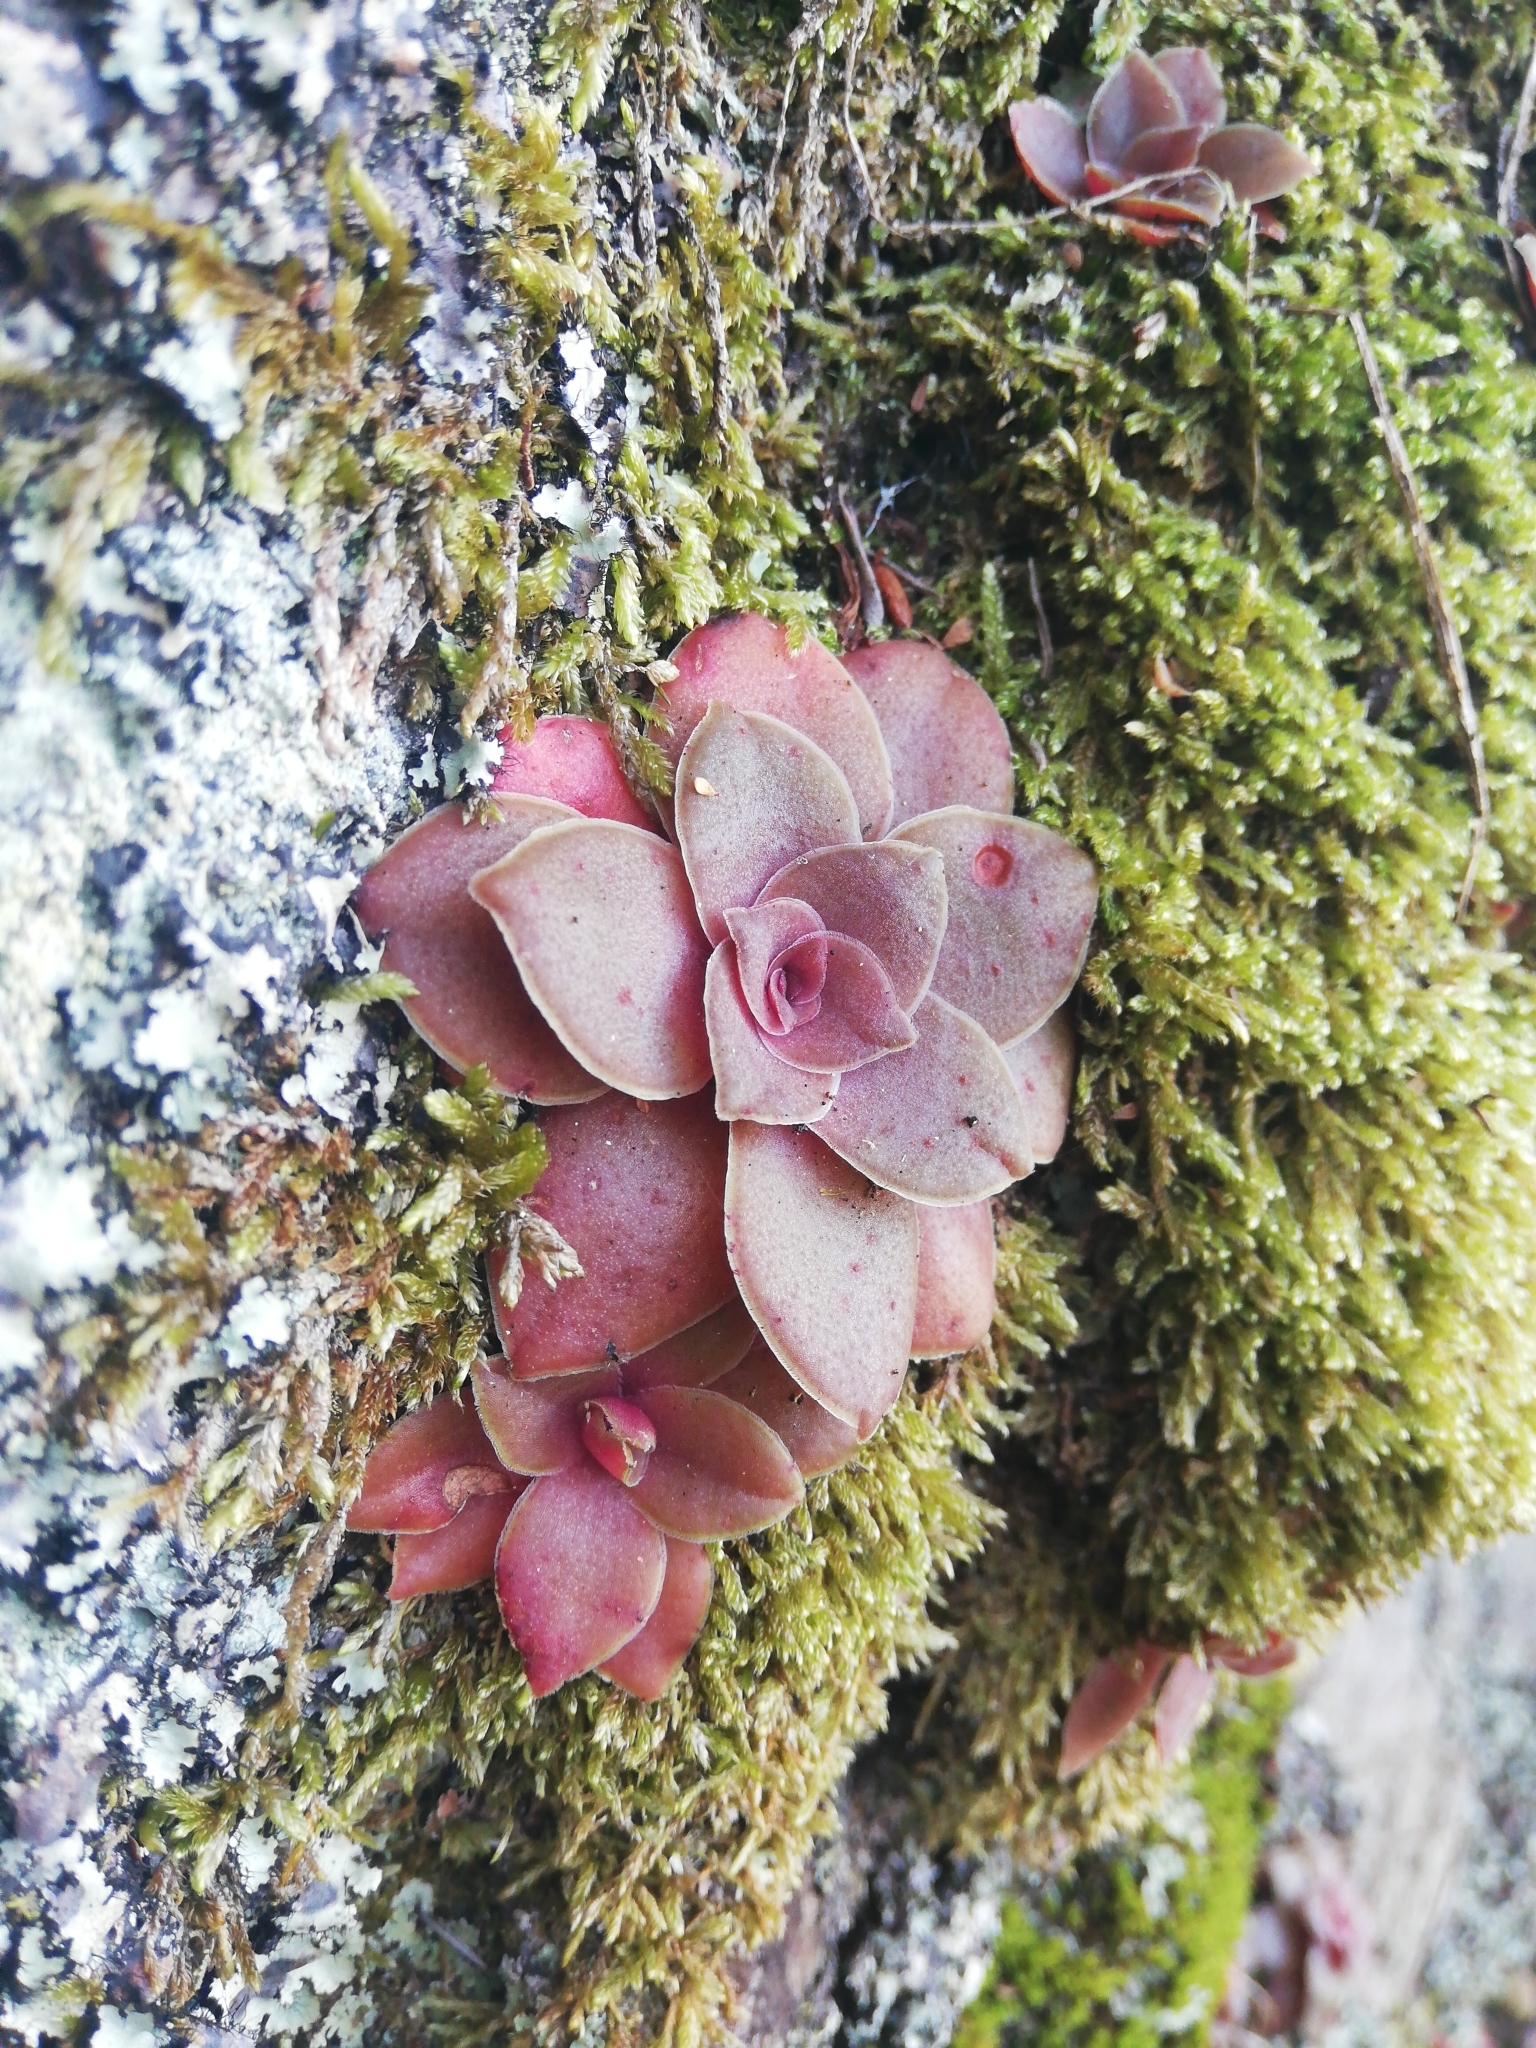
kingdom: Plantae
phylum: Tracheophyta
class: Magnoliopsida
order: Saxifragales
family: Crassulaceae
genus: Crassula
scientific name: Crassula orbicularis
